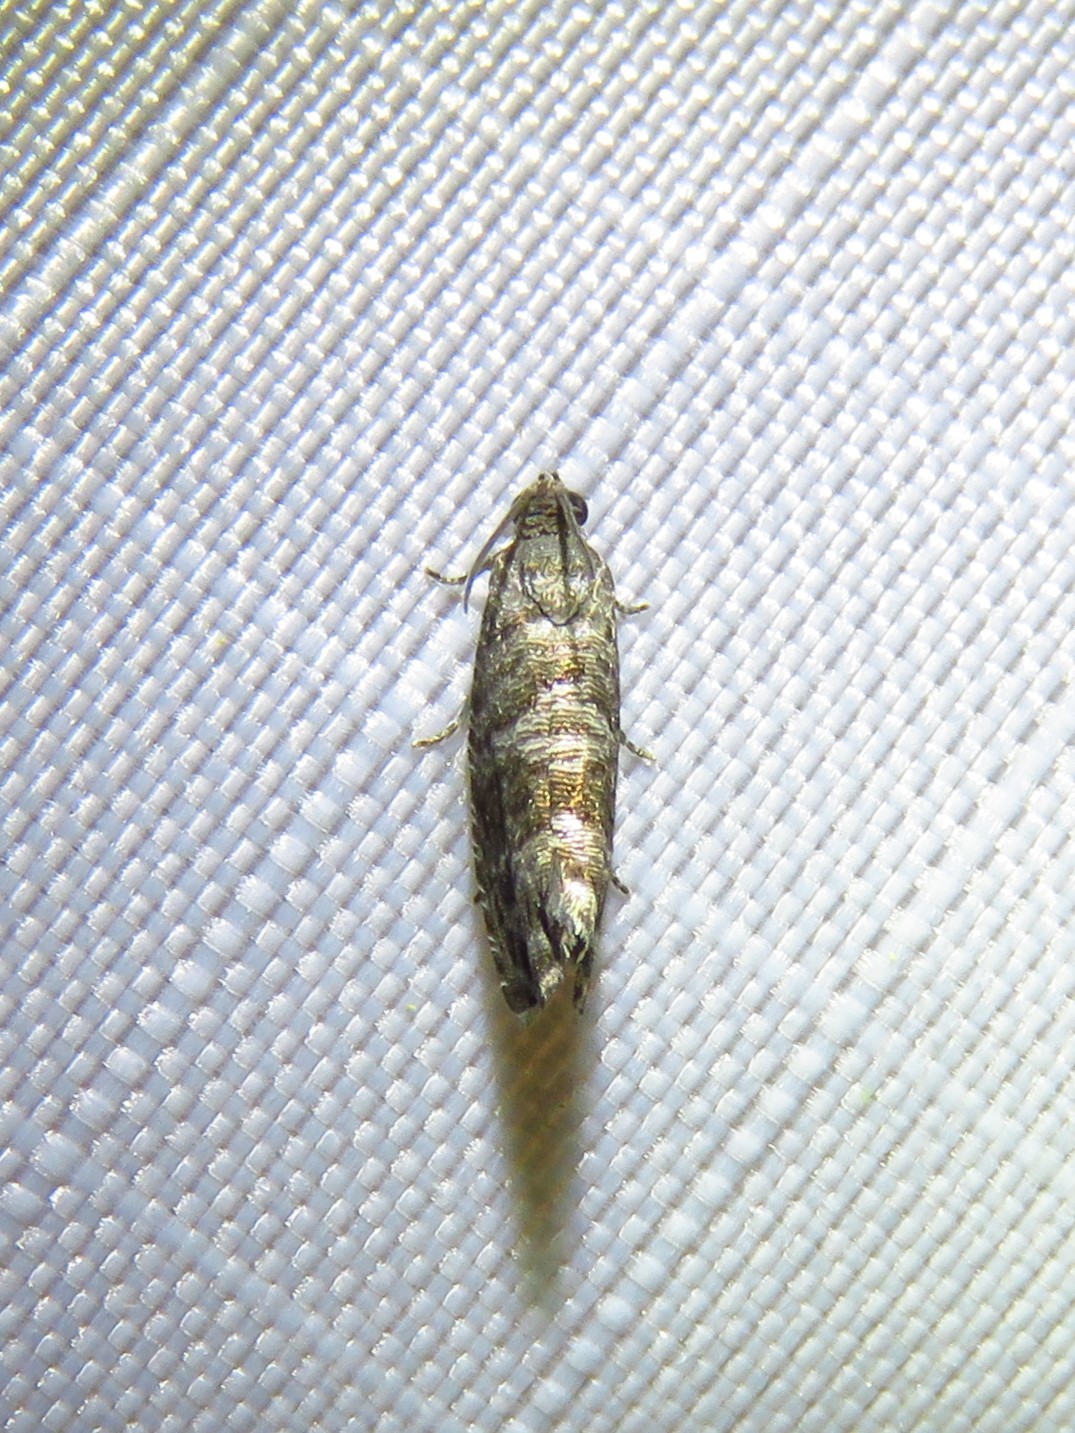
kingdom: Animalia
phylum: Arthropoda
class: Insecta
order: Lepidoptera
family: Noctuidae
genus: Aspila
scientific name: Aspila
